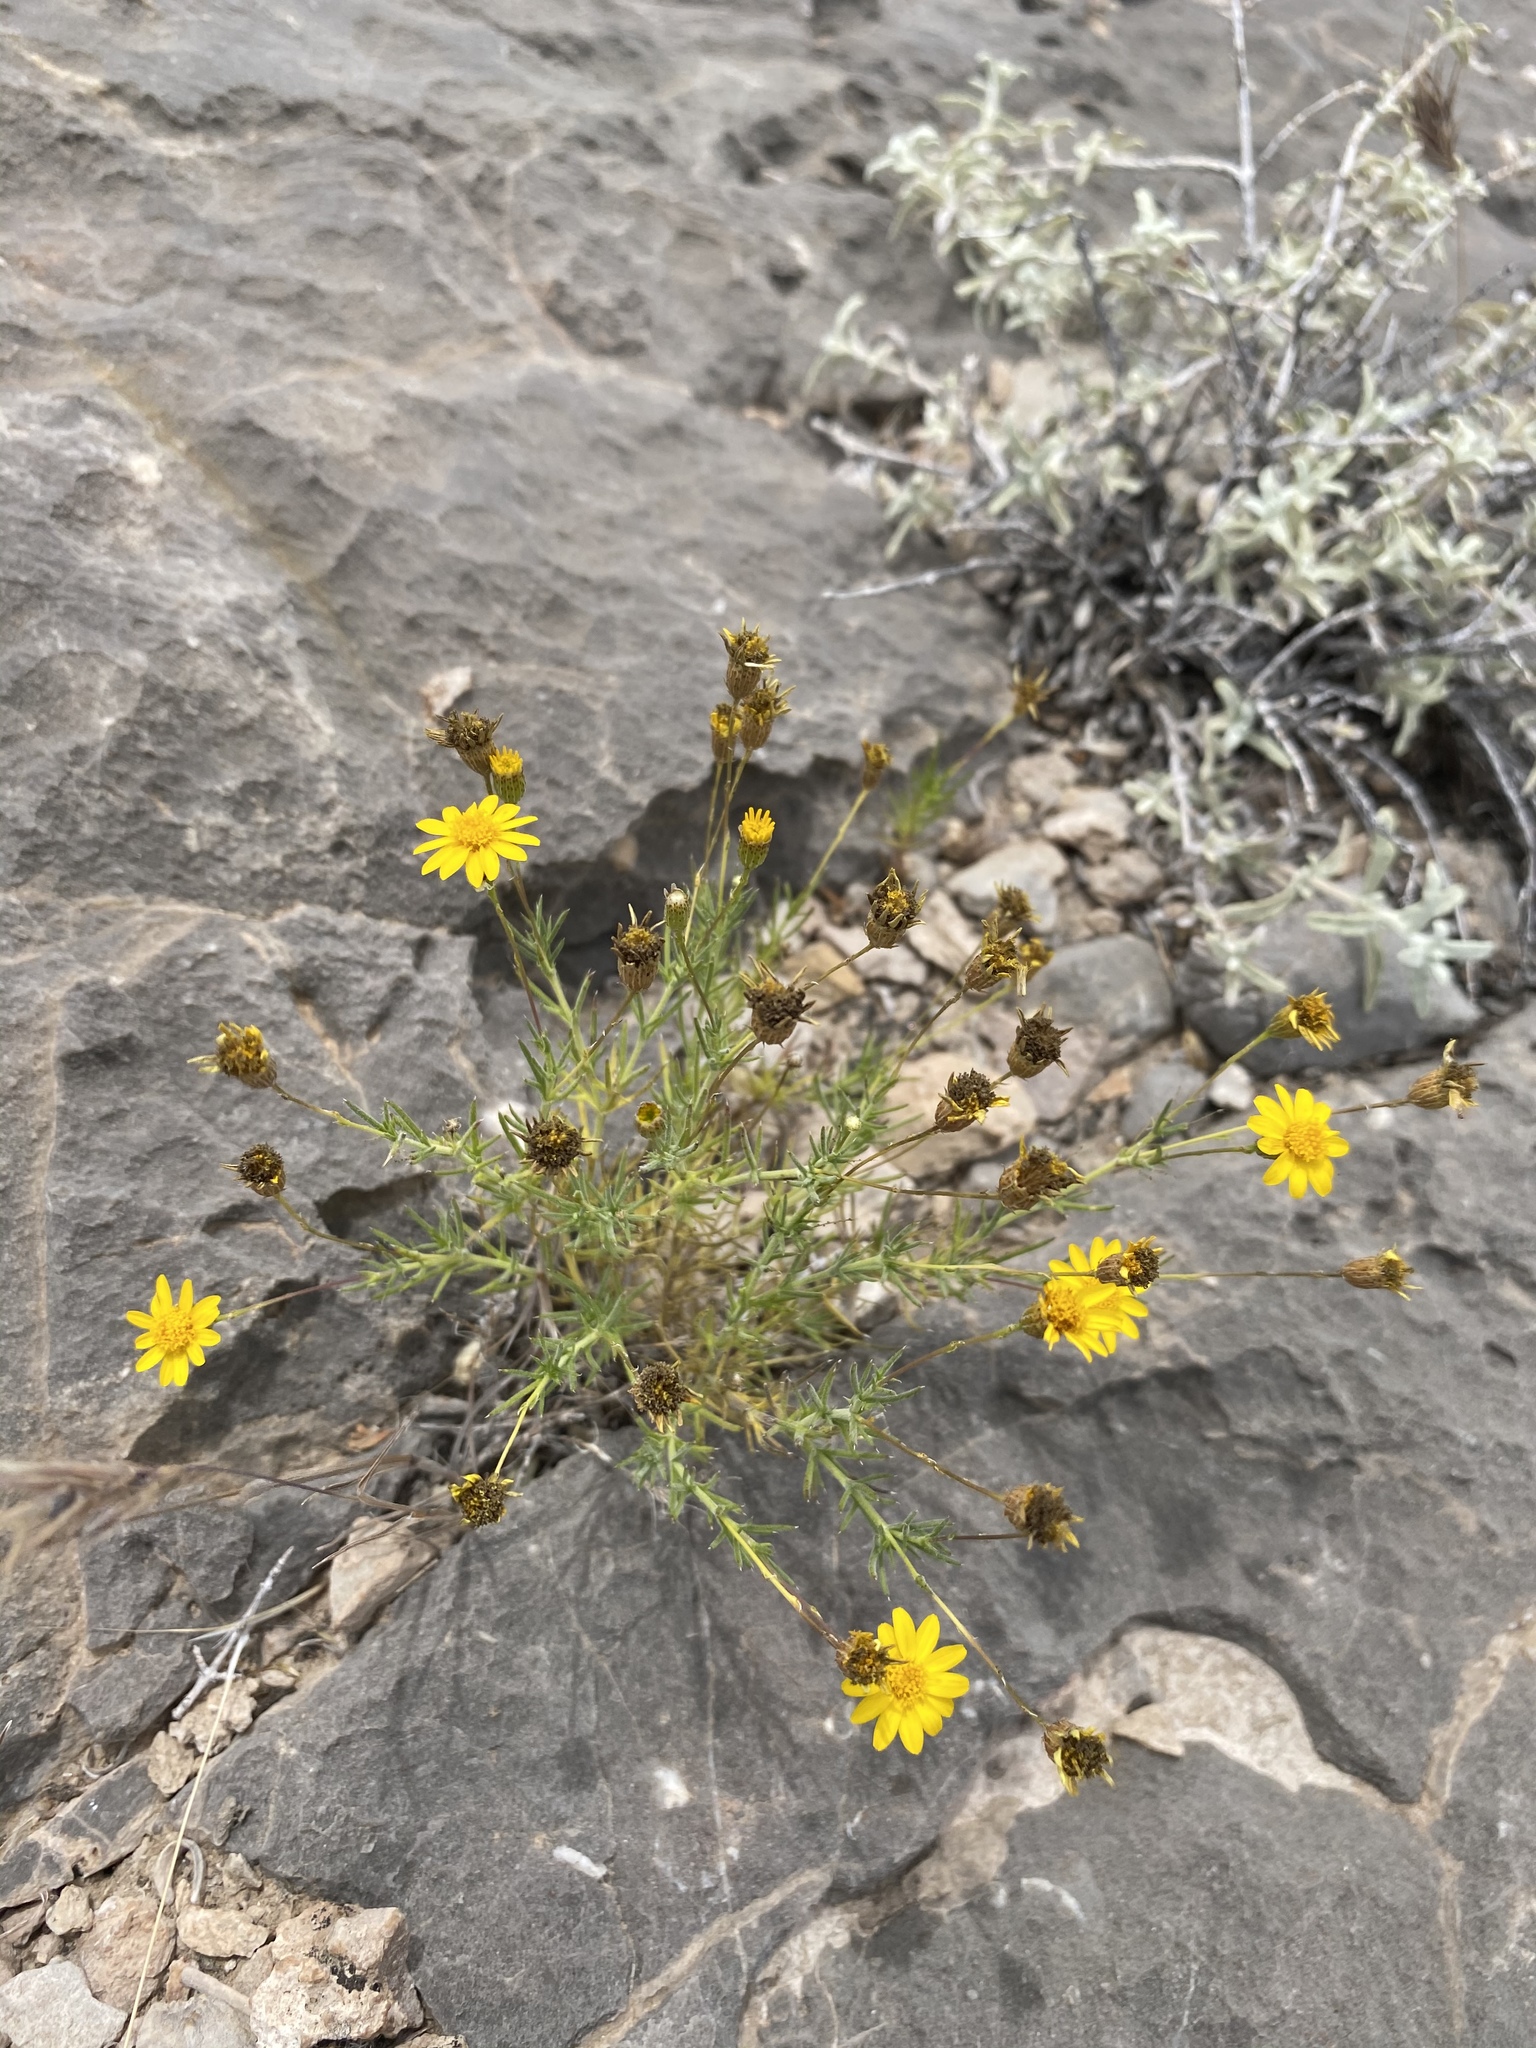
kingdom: Plantae
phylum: Tracheophyta
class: Magnoliopsida
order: Asterales
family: Asteraceae
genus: Thymophylla
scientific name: Thymophylla pentachaeta
